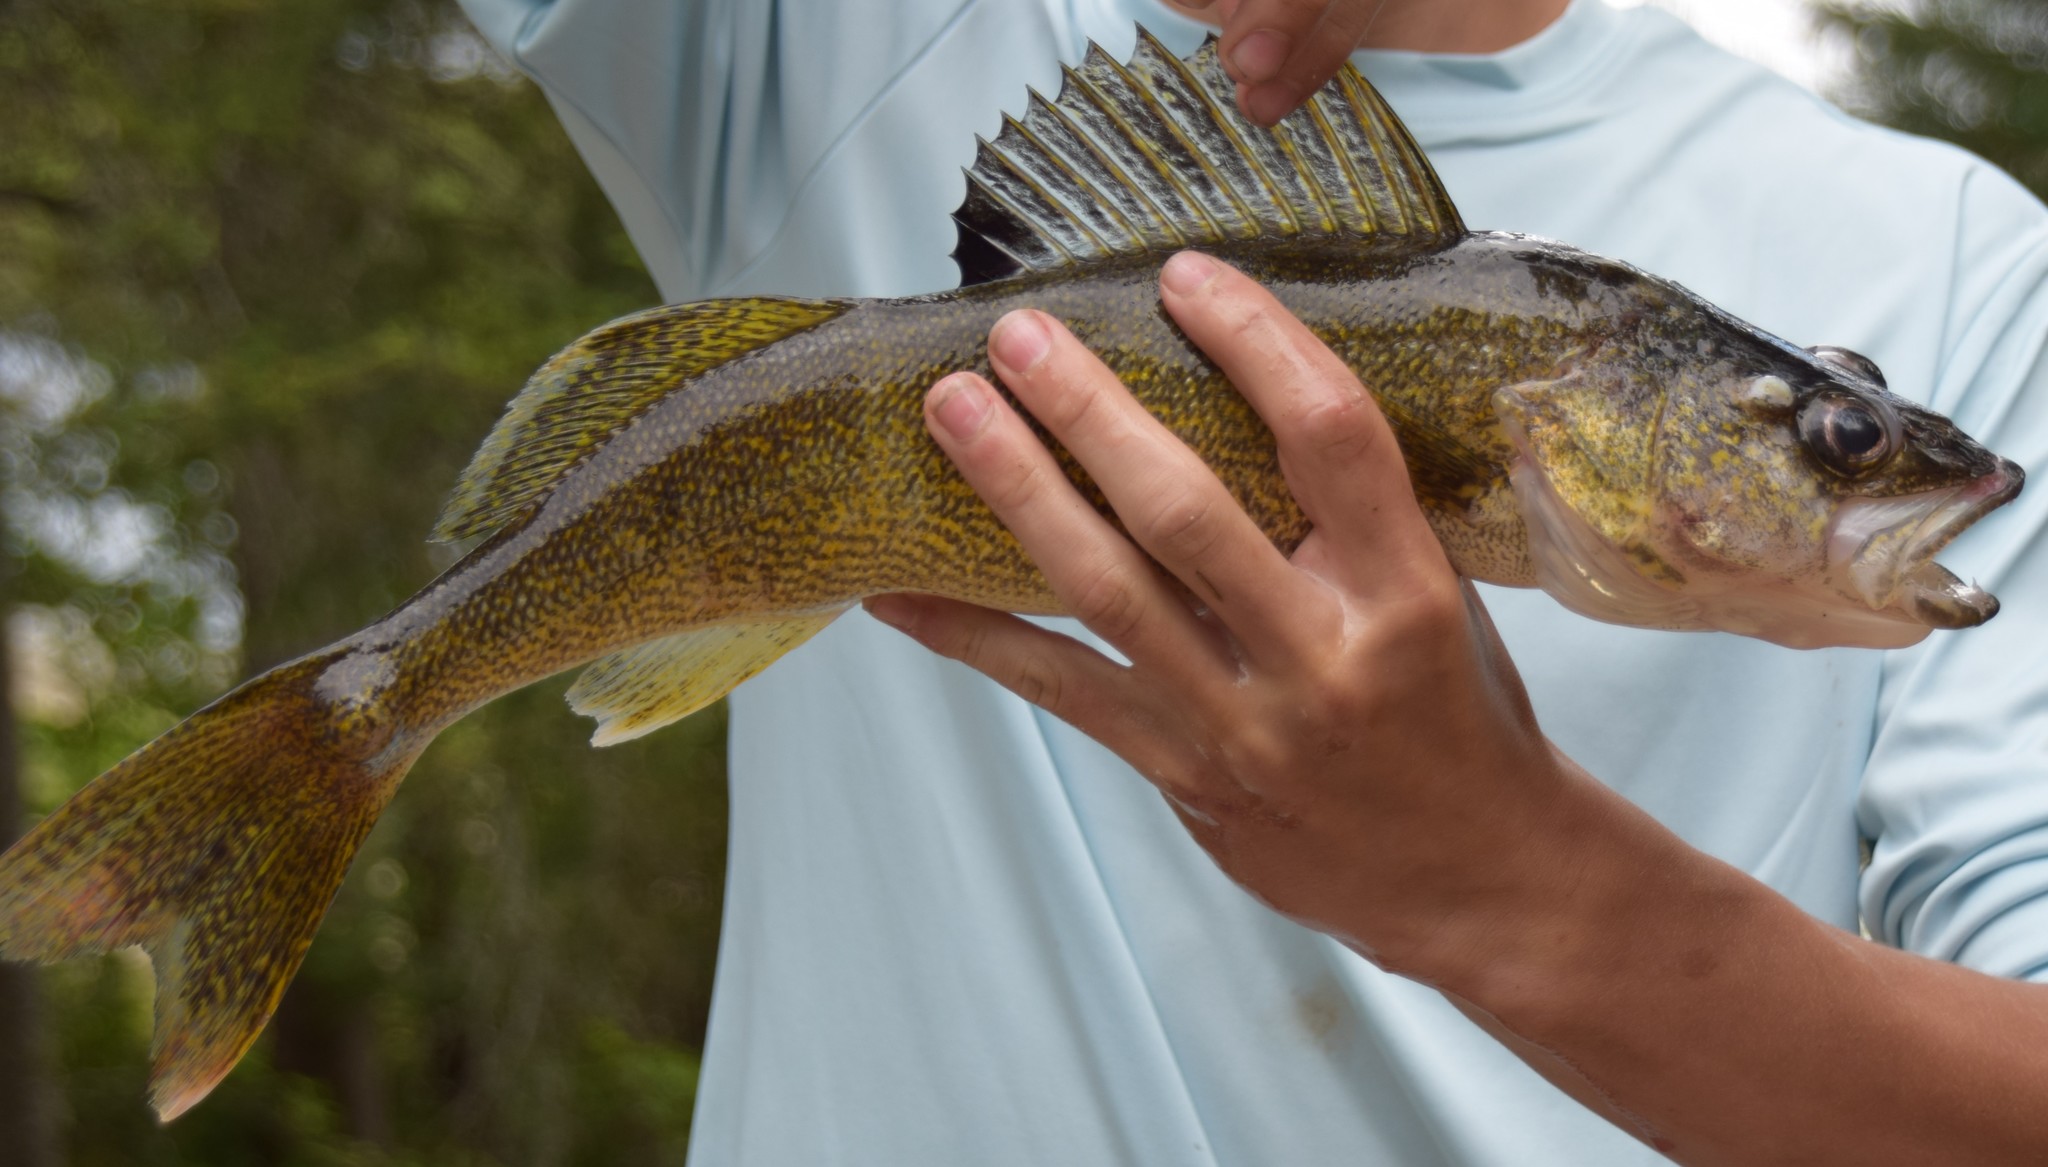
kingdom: Animalia
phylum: Chordata
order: Perciformes
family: Percidae
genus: Sander
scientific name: Sander vitreus
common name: Walleye
